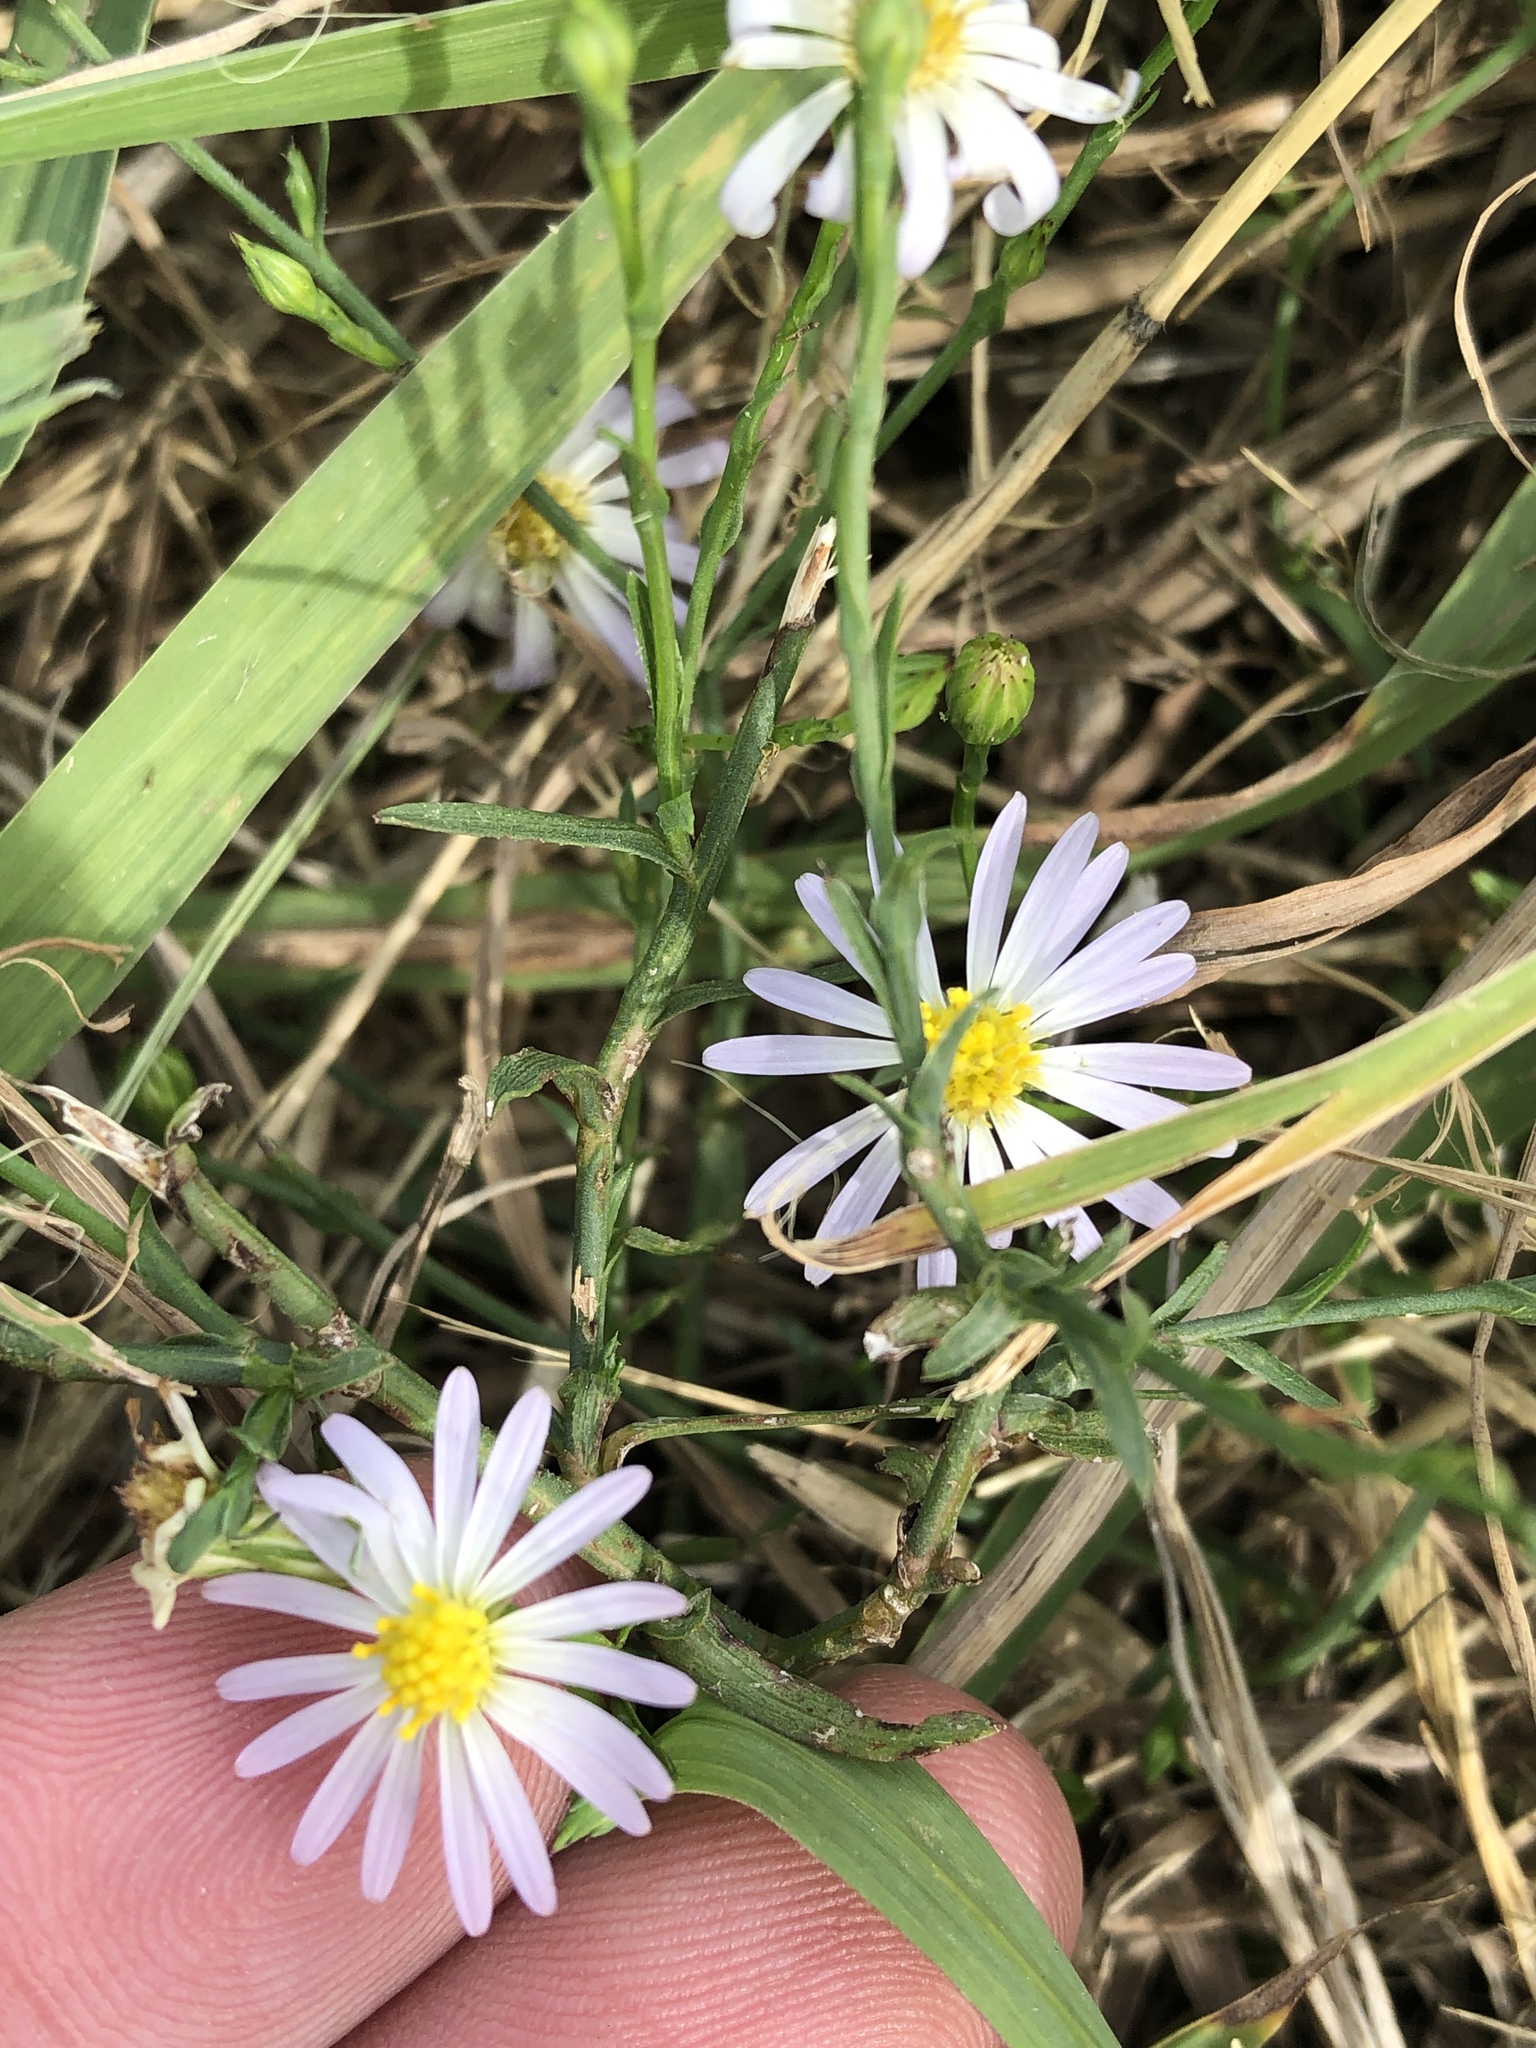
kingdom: Plantae
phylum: Tracheophyta
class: Magnoliopsida
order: Asterales
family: Asteraceae
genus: Symphyotrichum
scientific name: Symphyotrichum divaricatum
